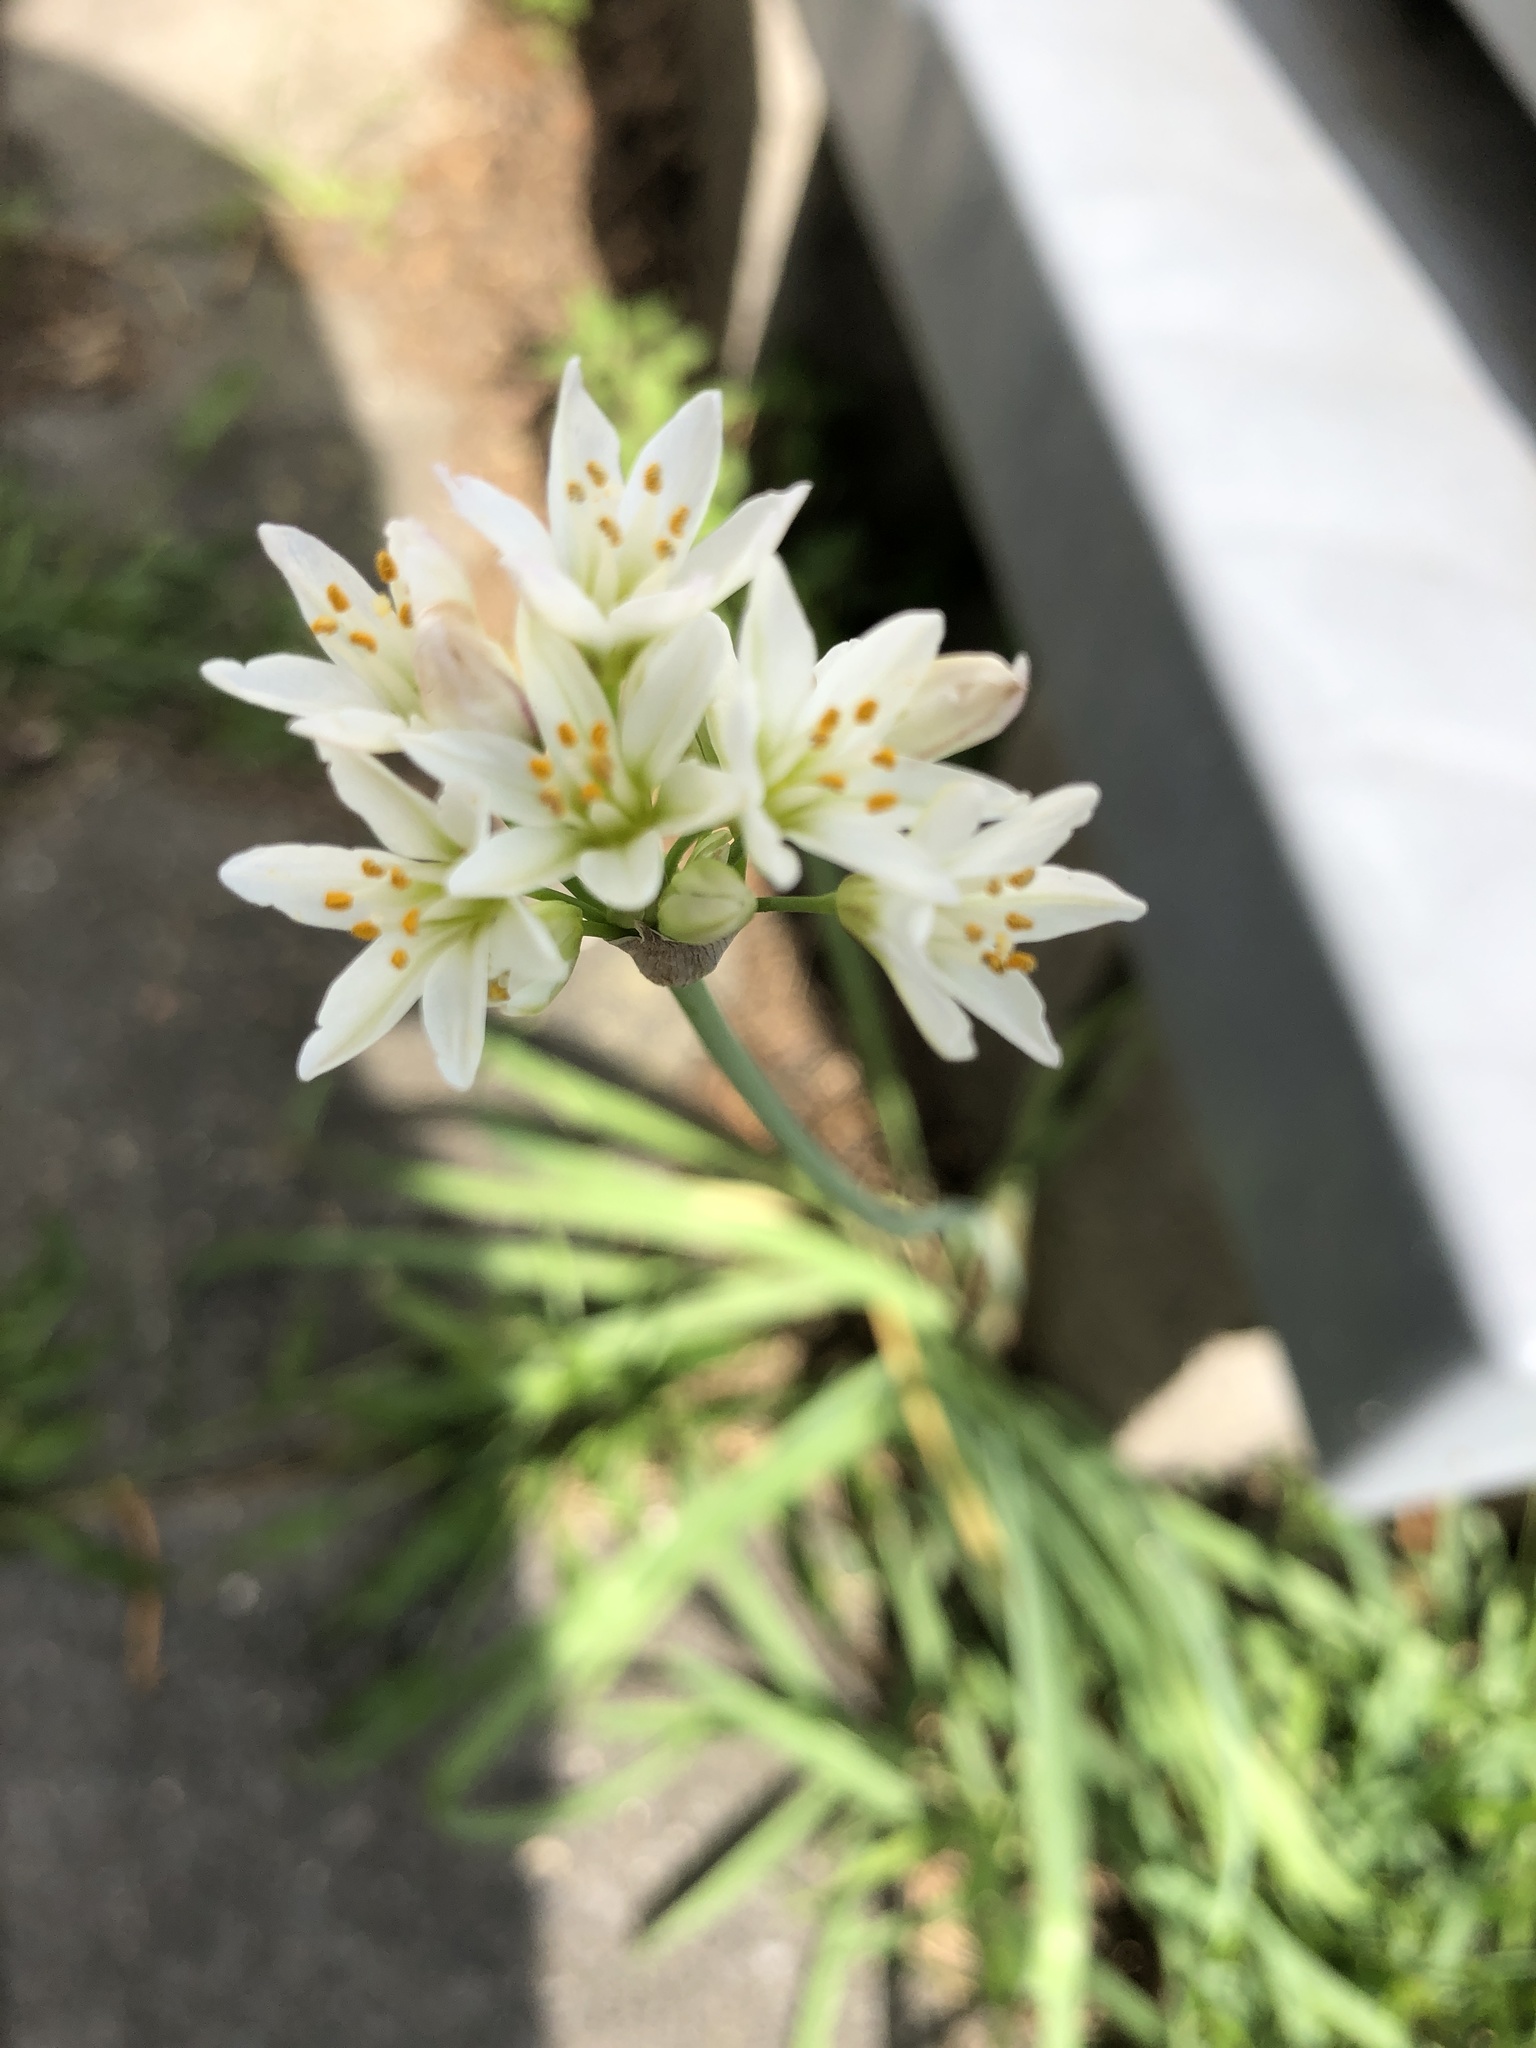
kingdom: Plantae
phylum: Tracheophyta
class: Liliopsida
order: Asparagales
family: Amaryllidaceae
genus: Nothoscordum
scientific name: Nothoscordum gracile
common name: Slender false garlic
